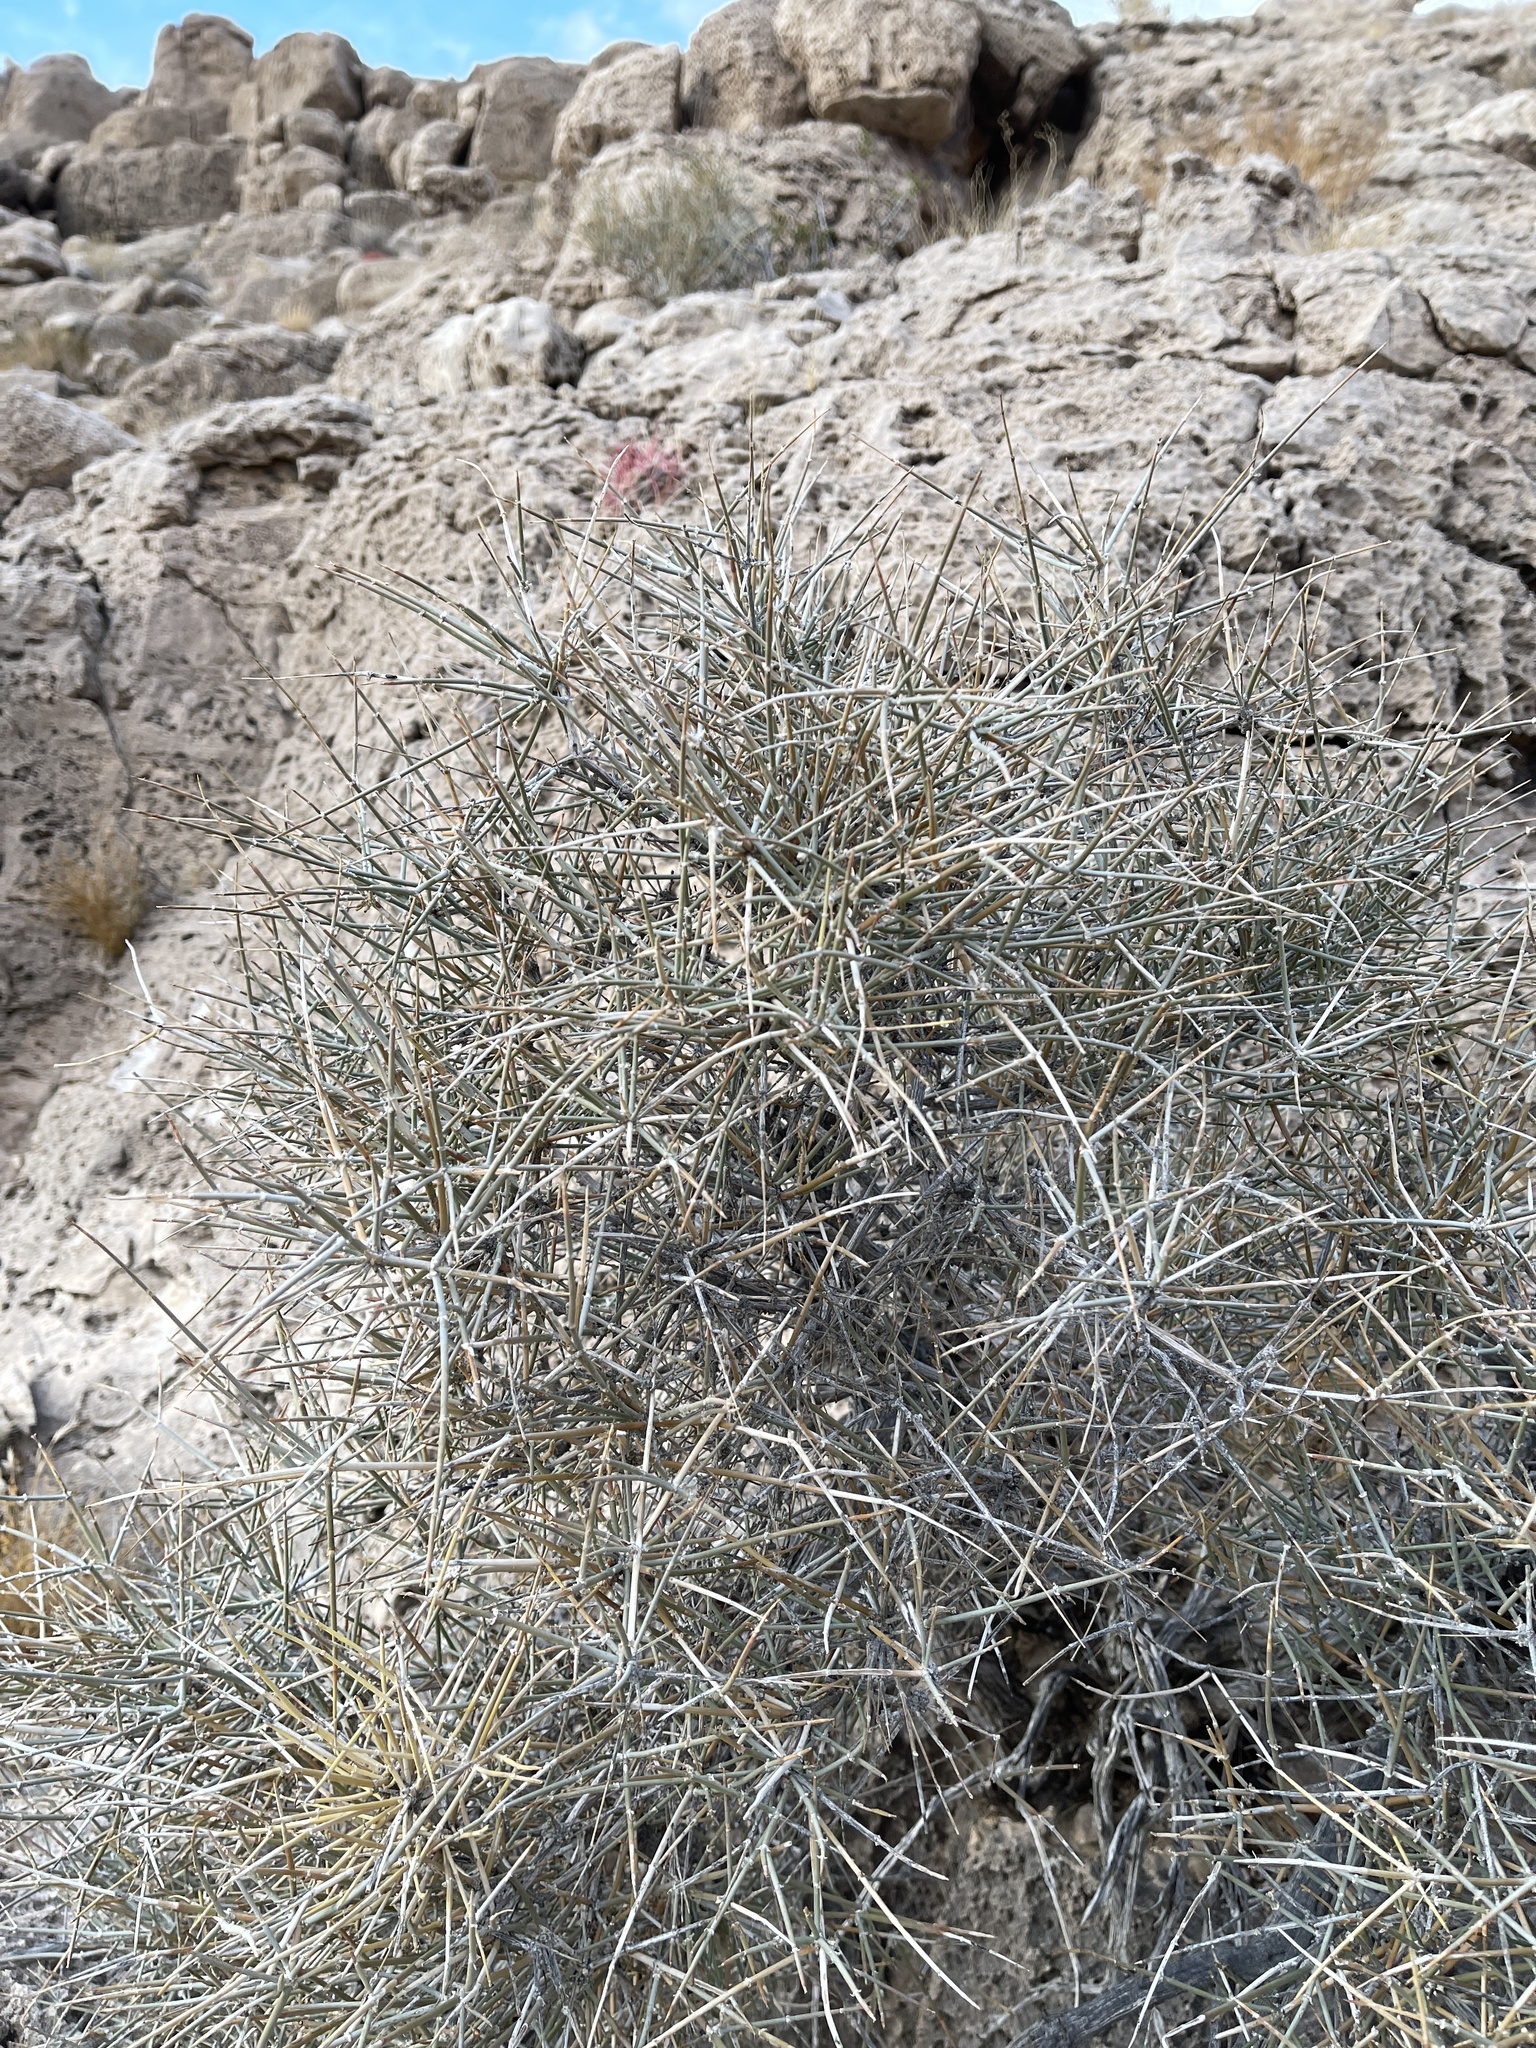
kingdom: Plantae
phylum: Tracheophyta
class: Gnetopsida
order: Ephedrales
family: Ephedraceae
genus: Ephedra
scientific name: Ephedra nevadensis
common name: Gray ephedra
